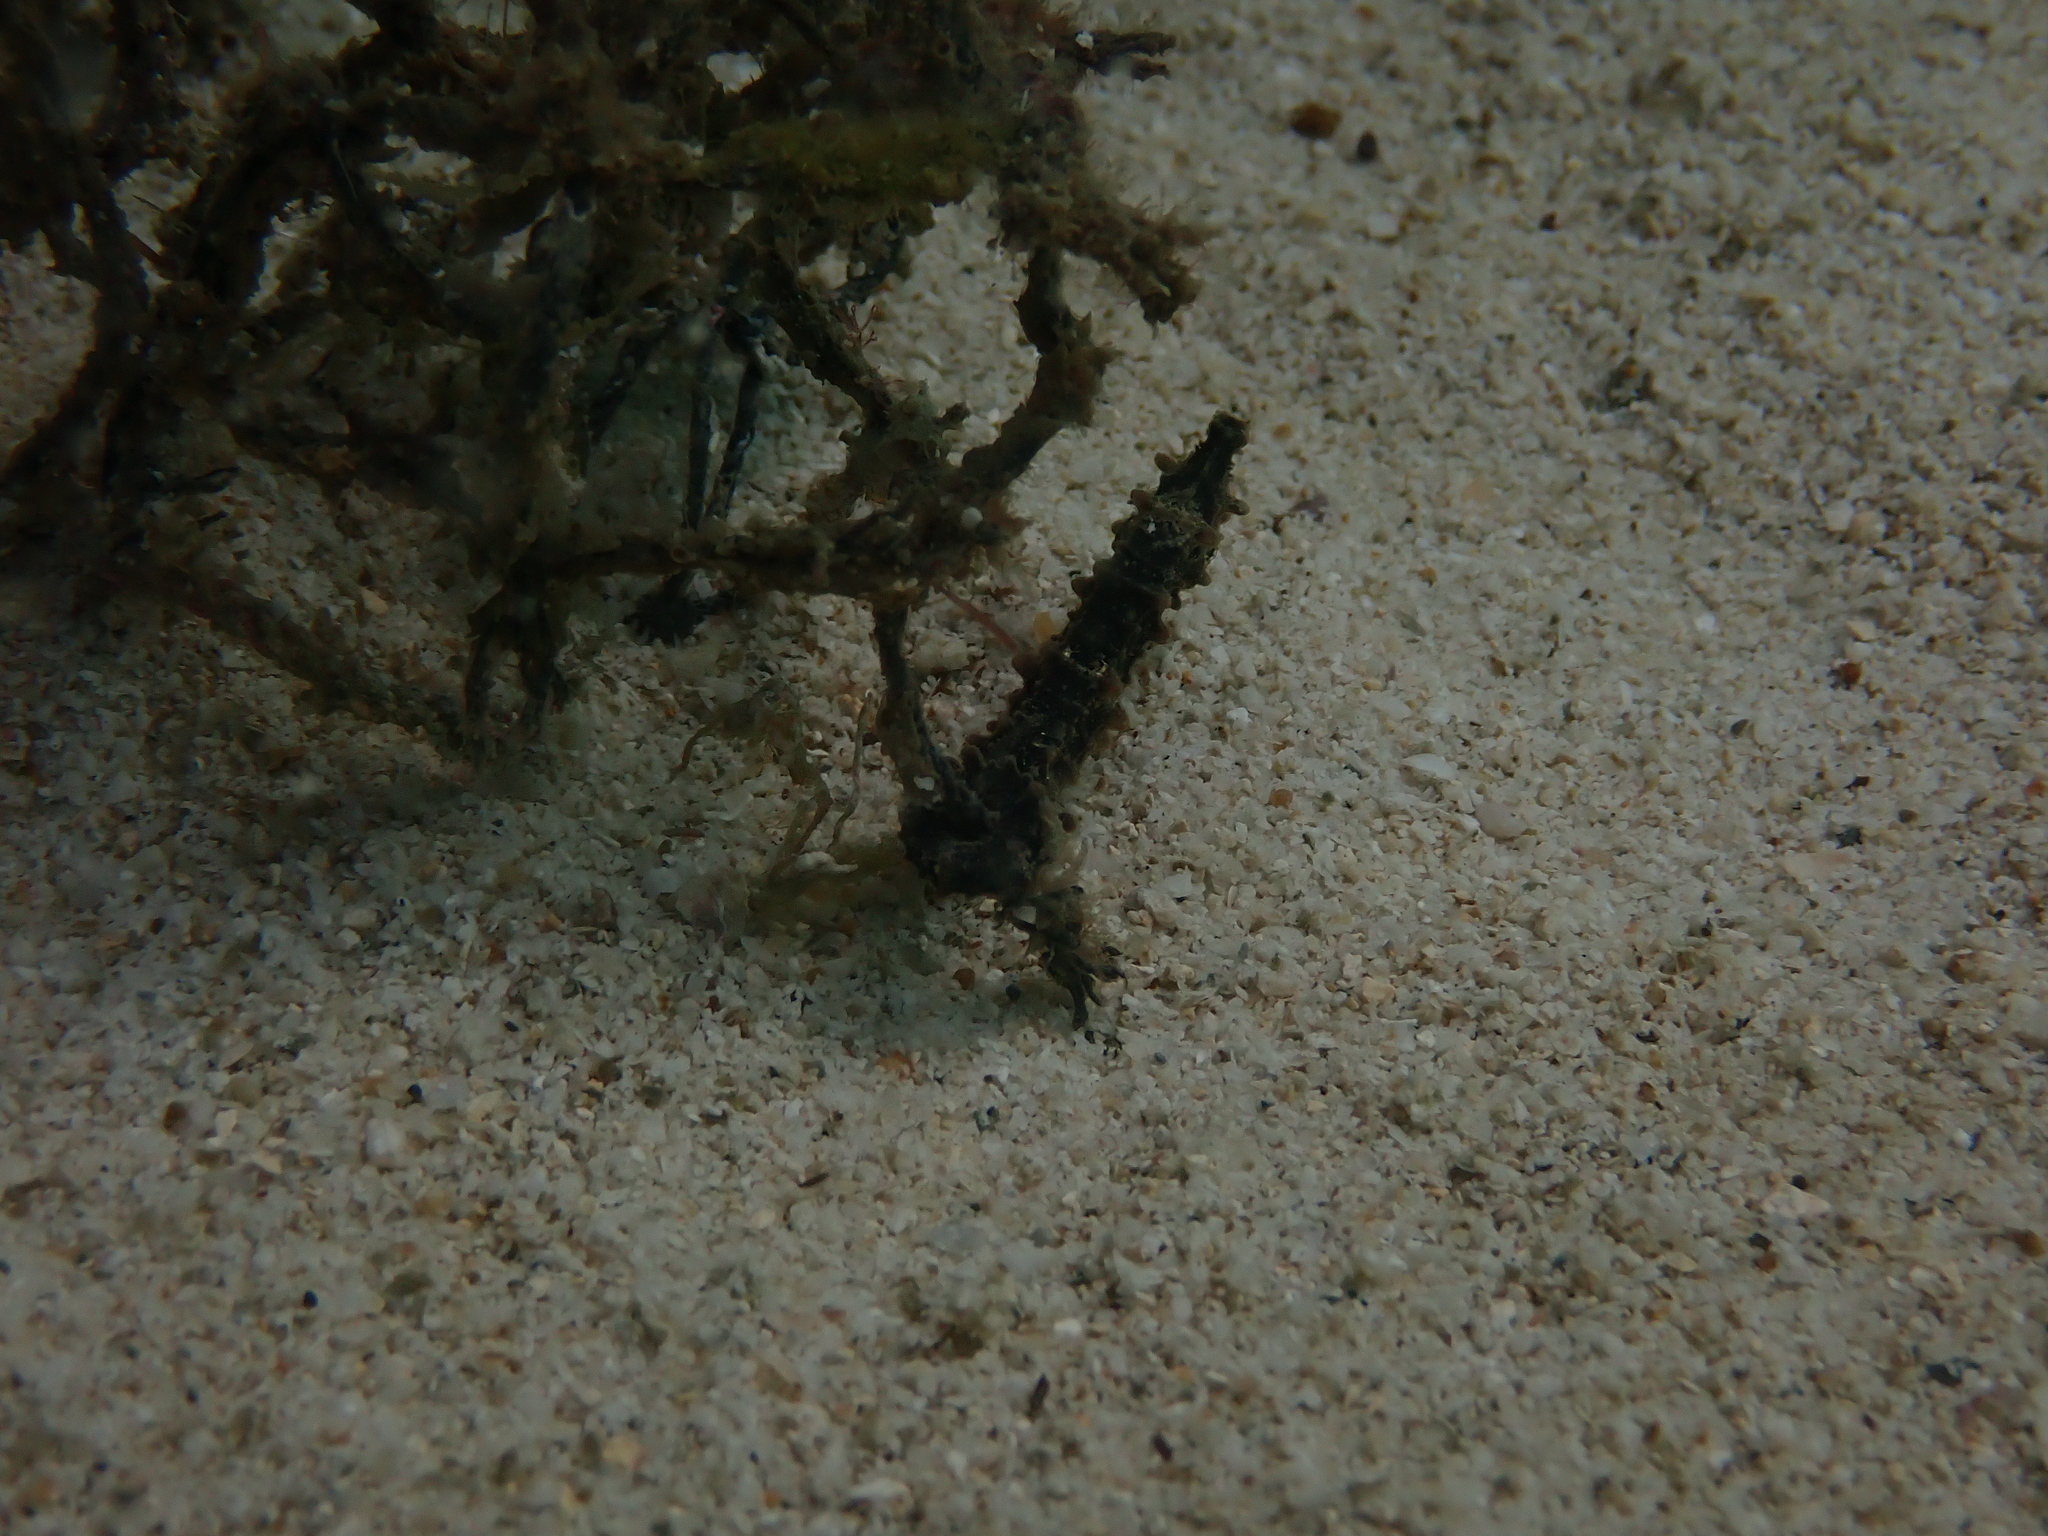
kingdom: Animalia
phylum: Chordata
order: Syngnathiformes
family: Syngnathidae
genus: Hippocampus
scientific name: Hippocampus spinosissimus
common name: Hedgehog seahorse
